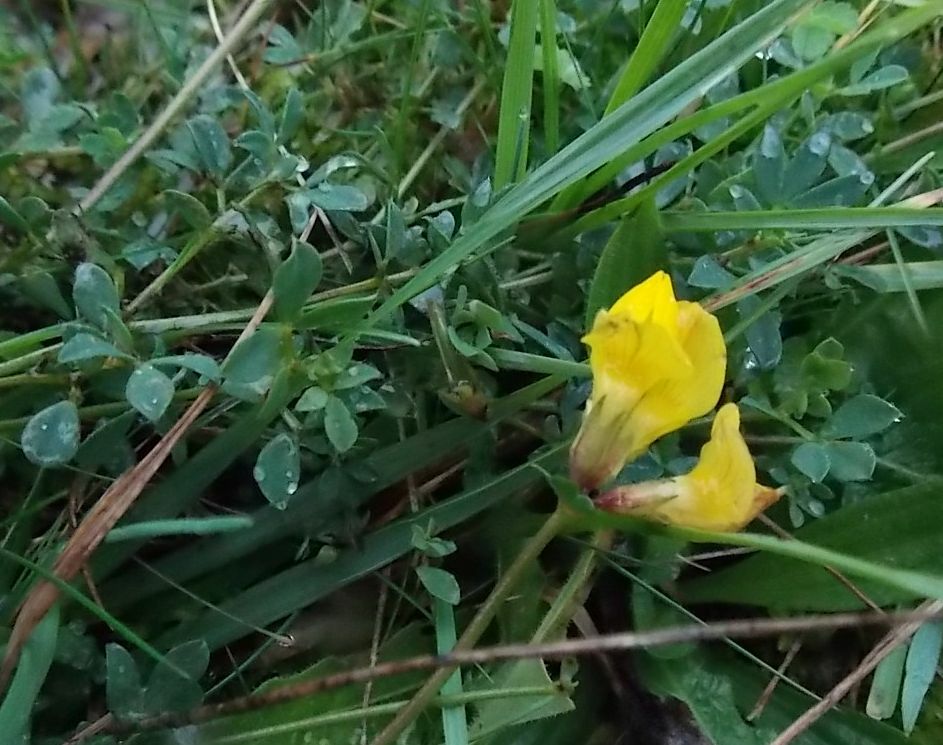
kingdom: Plantae
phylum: Tracheophyta
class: Magnoliopsida
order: Fabales
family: Fabaceae
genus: Lotus
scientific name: Lotus corniculatus
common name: Common bird's-foot-trefoil
